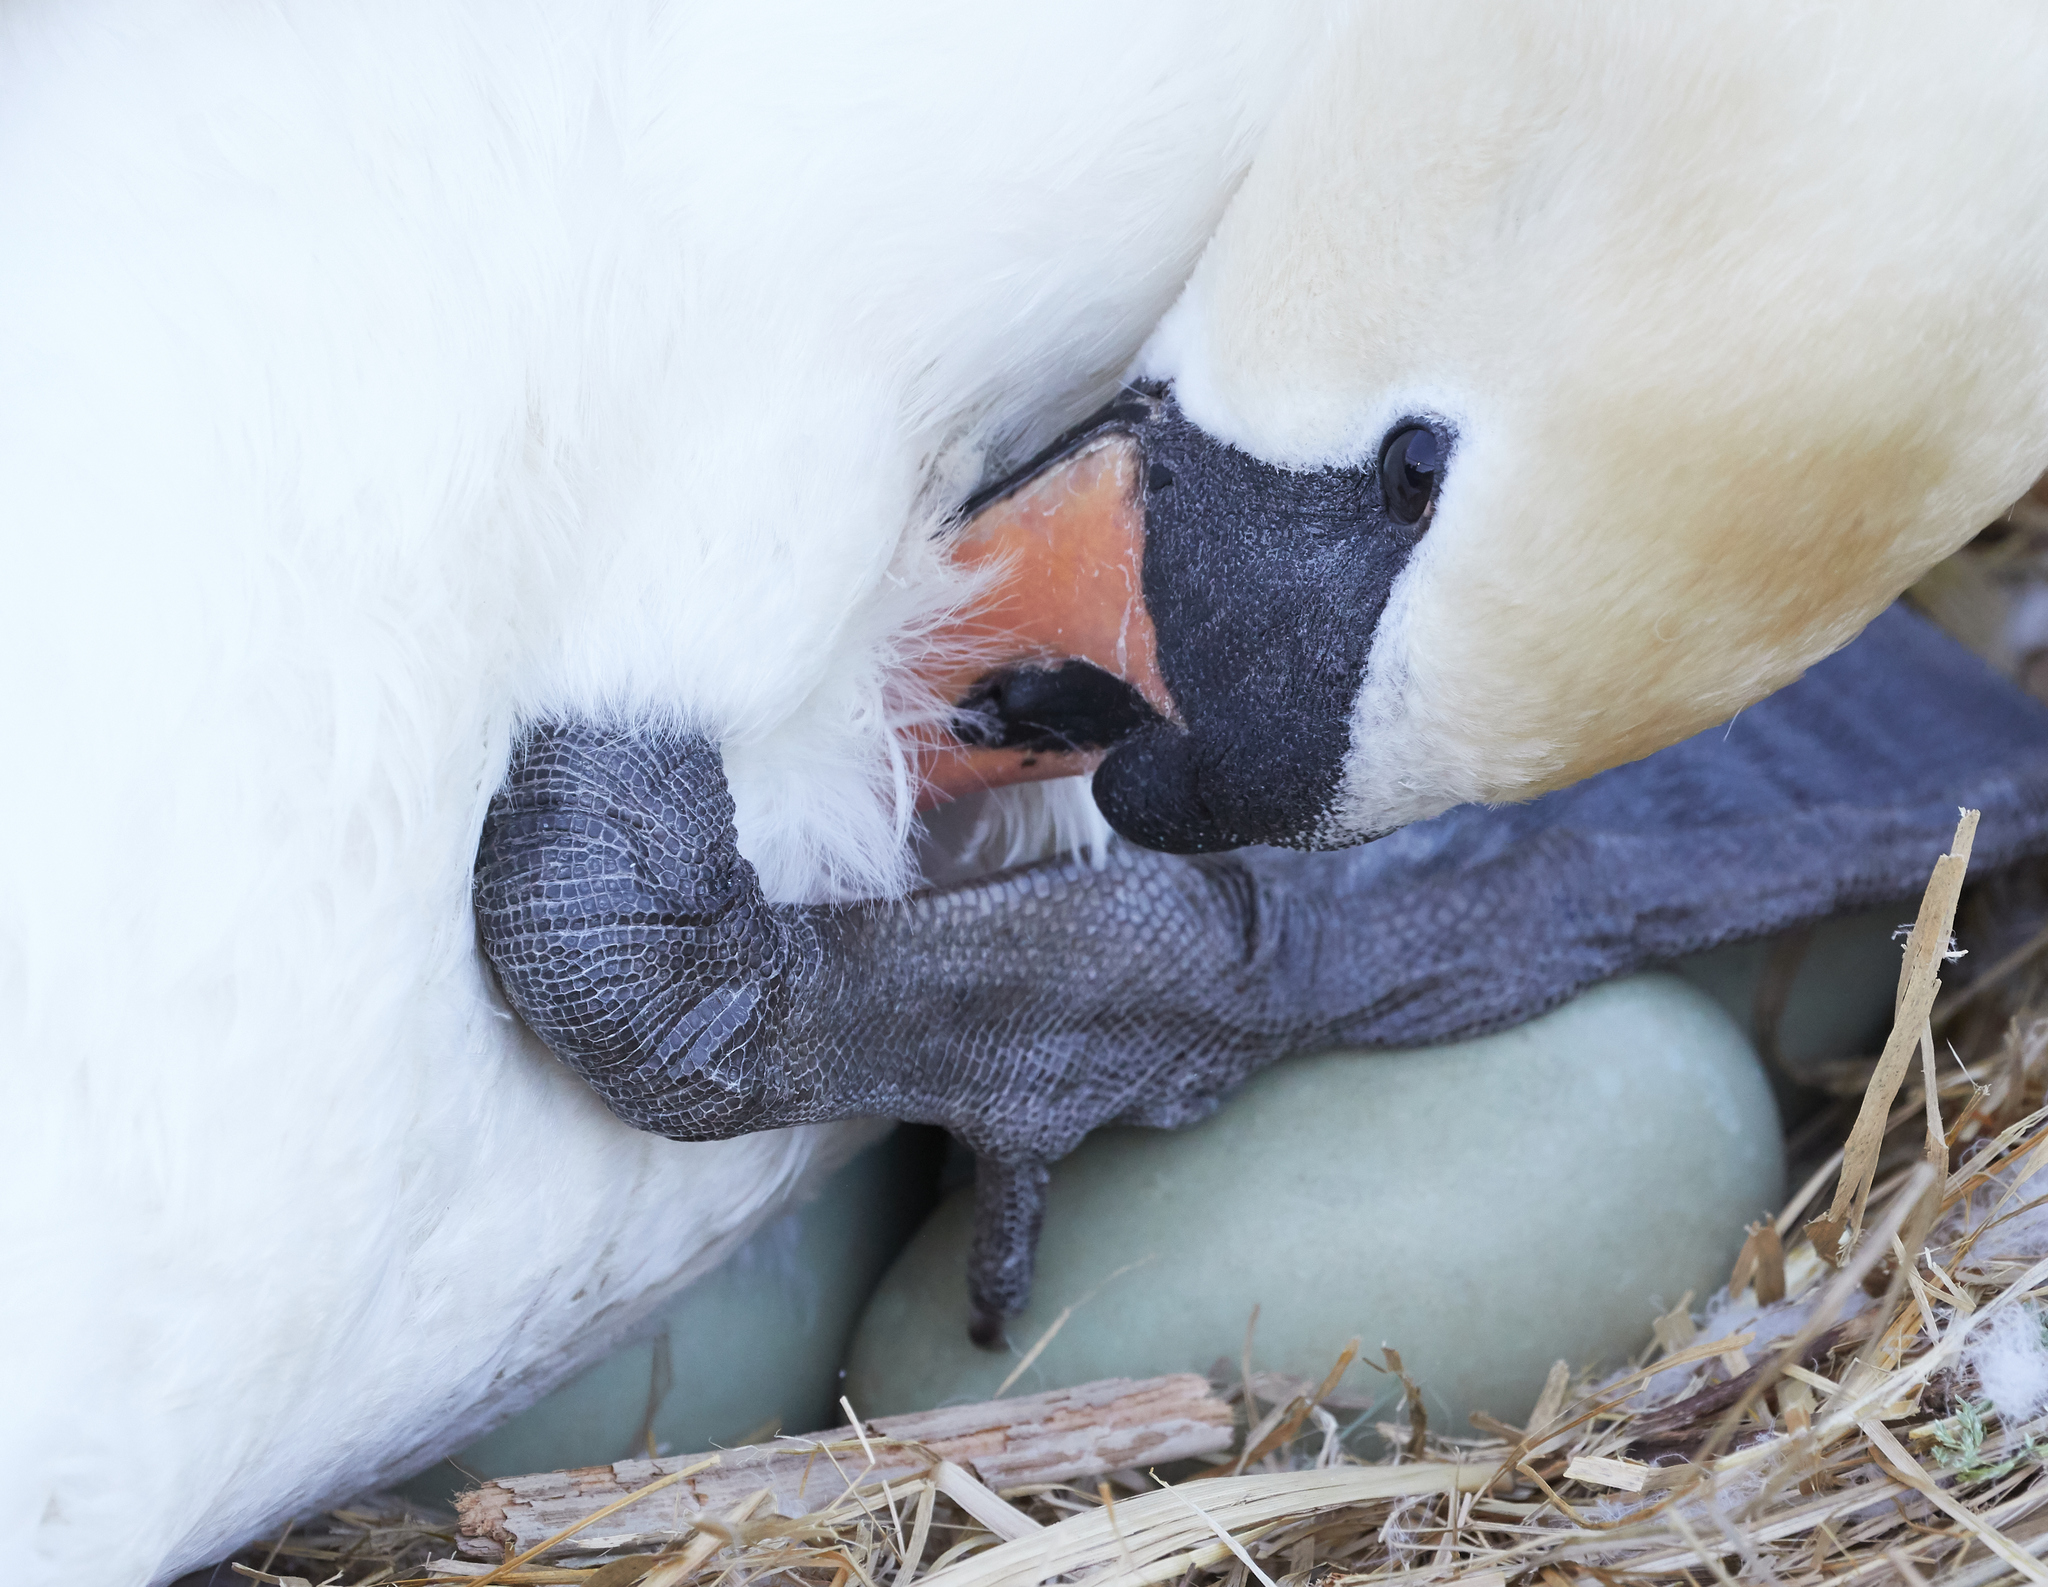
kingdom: Animalia
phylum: Chordata
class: Aves
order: Anseriformes
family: Anatidae
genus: Cygnus
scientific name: Cygnus olor
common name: Mute swan
